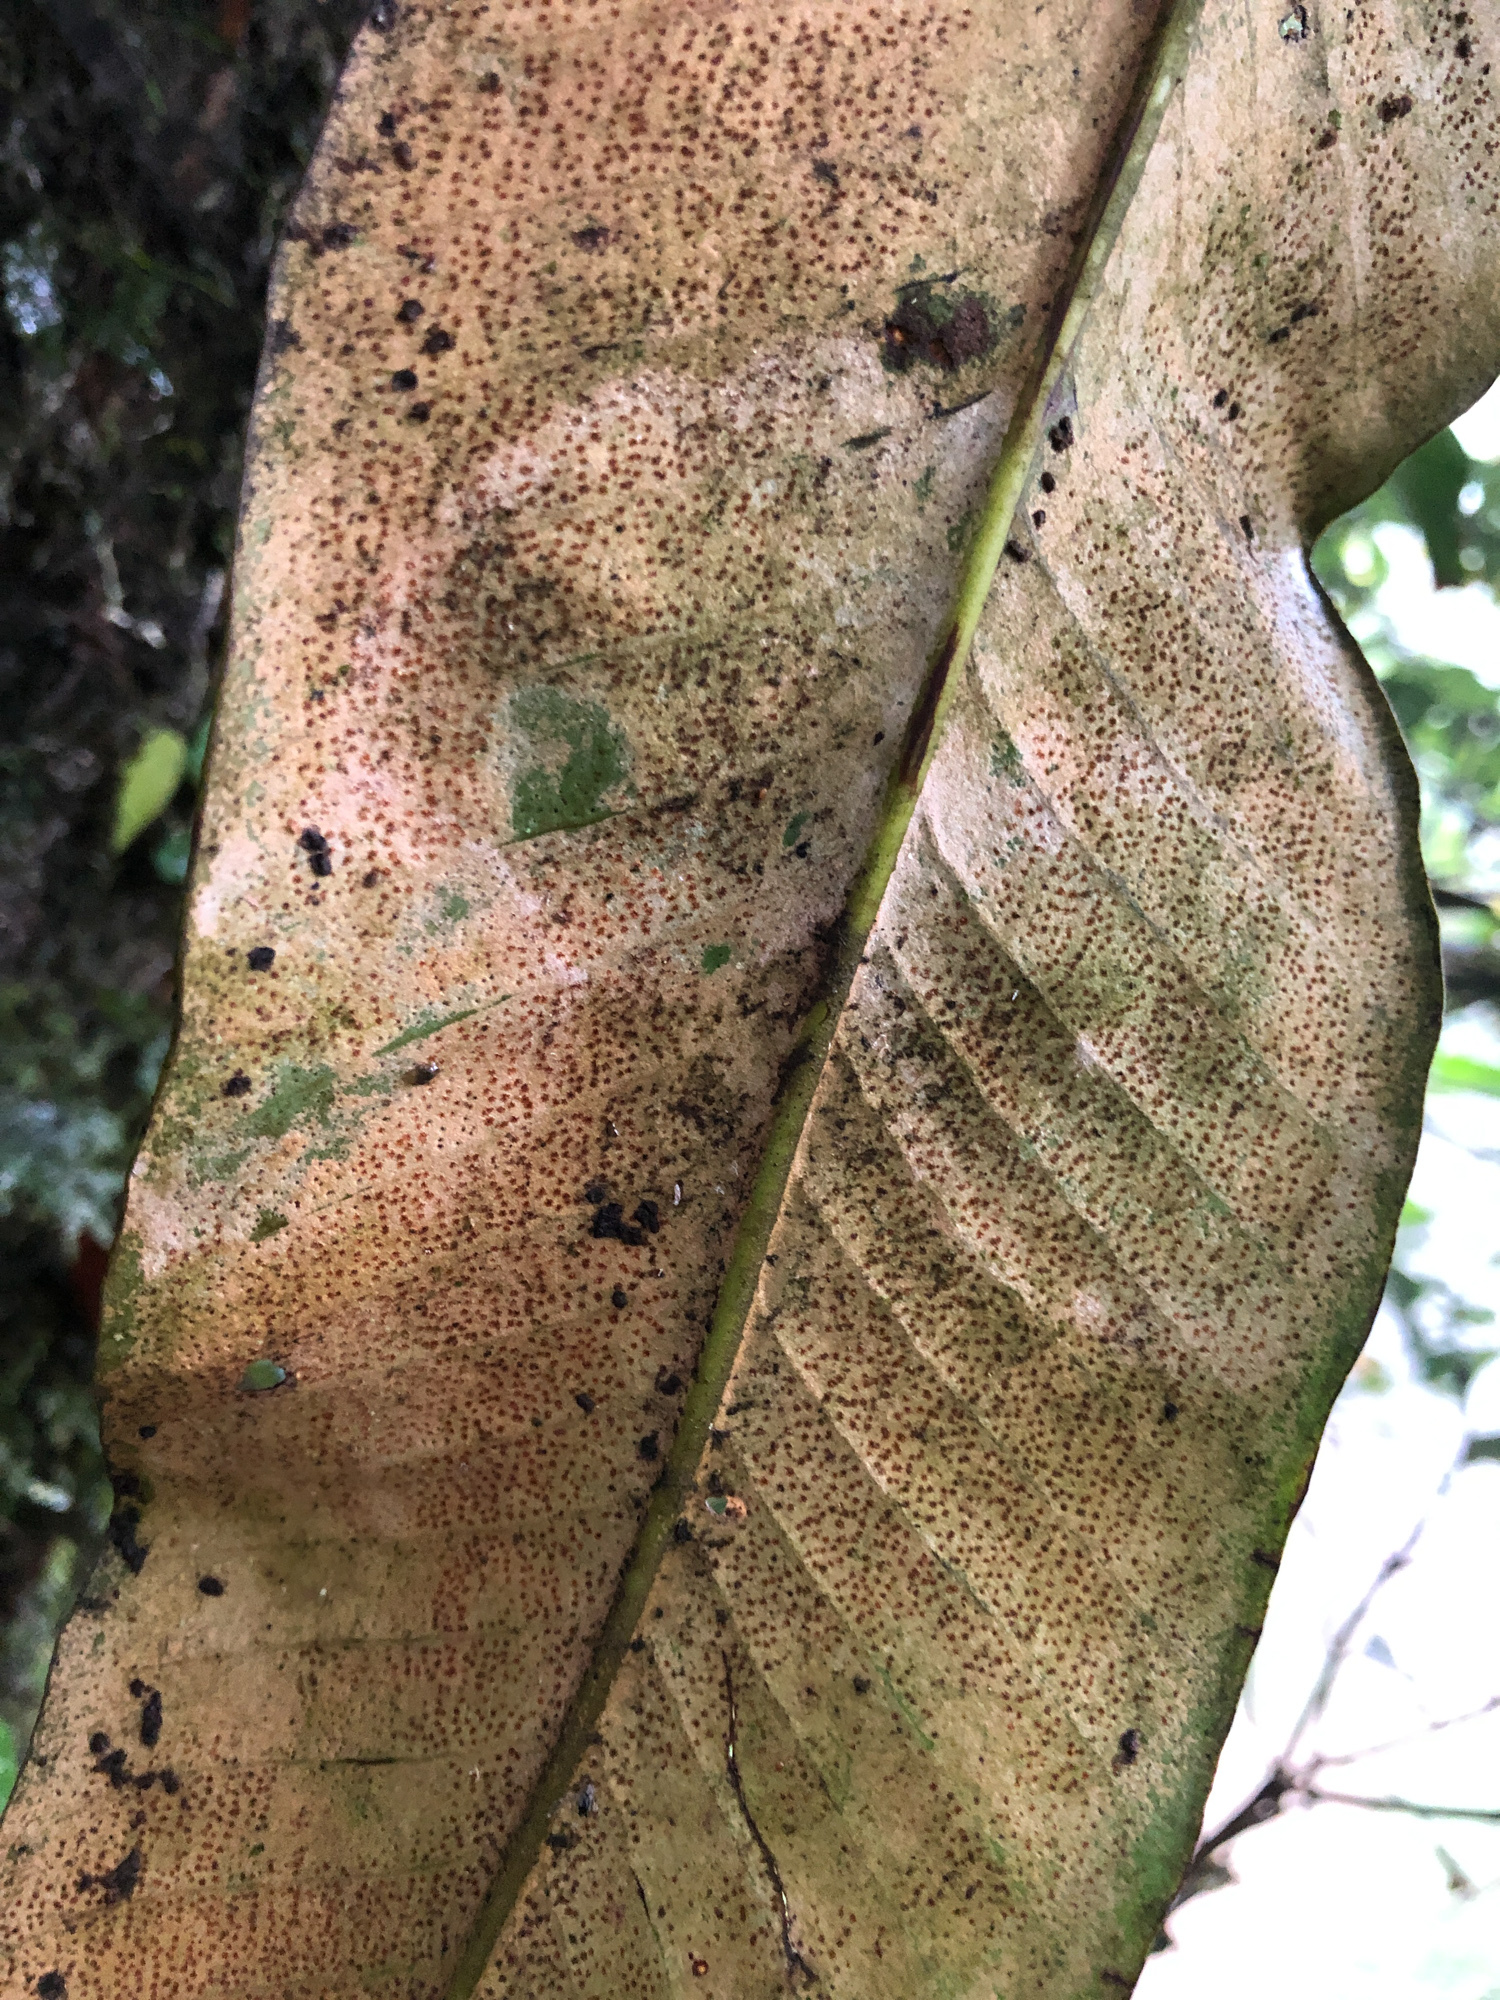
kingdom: Plantae
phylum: Tracheophyta
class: Polypodiopsida
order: Polypodiales
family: Polypodiaceae
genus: Pyrrosia
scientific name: Pyrrosia sheareri
